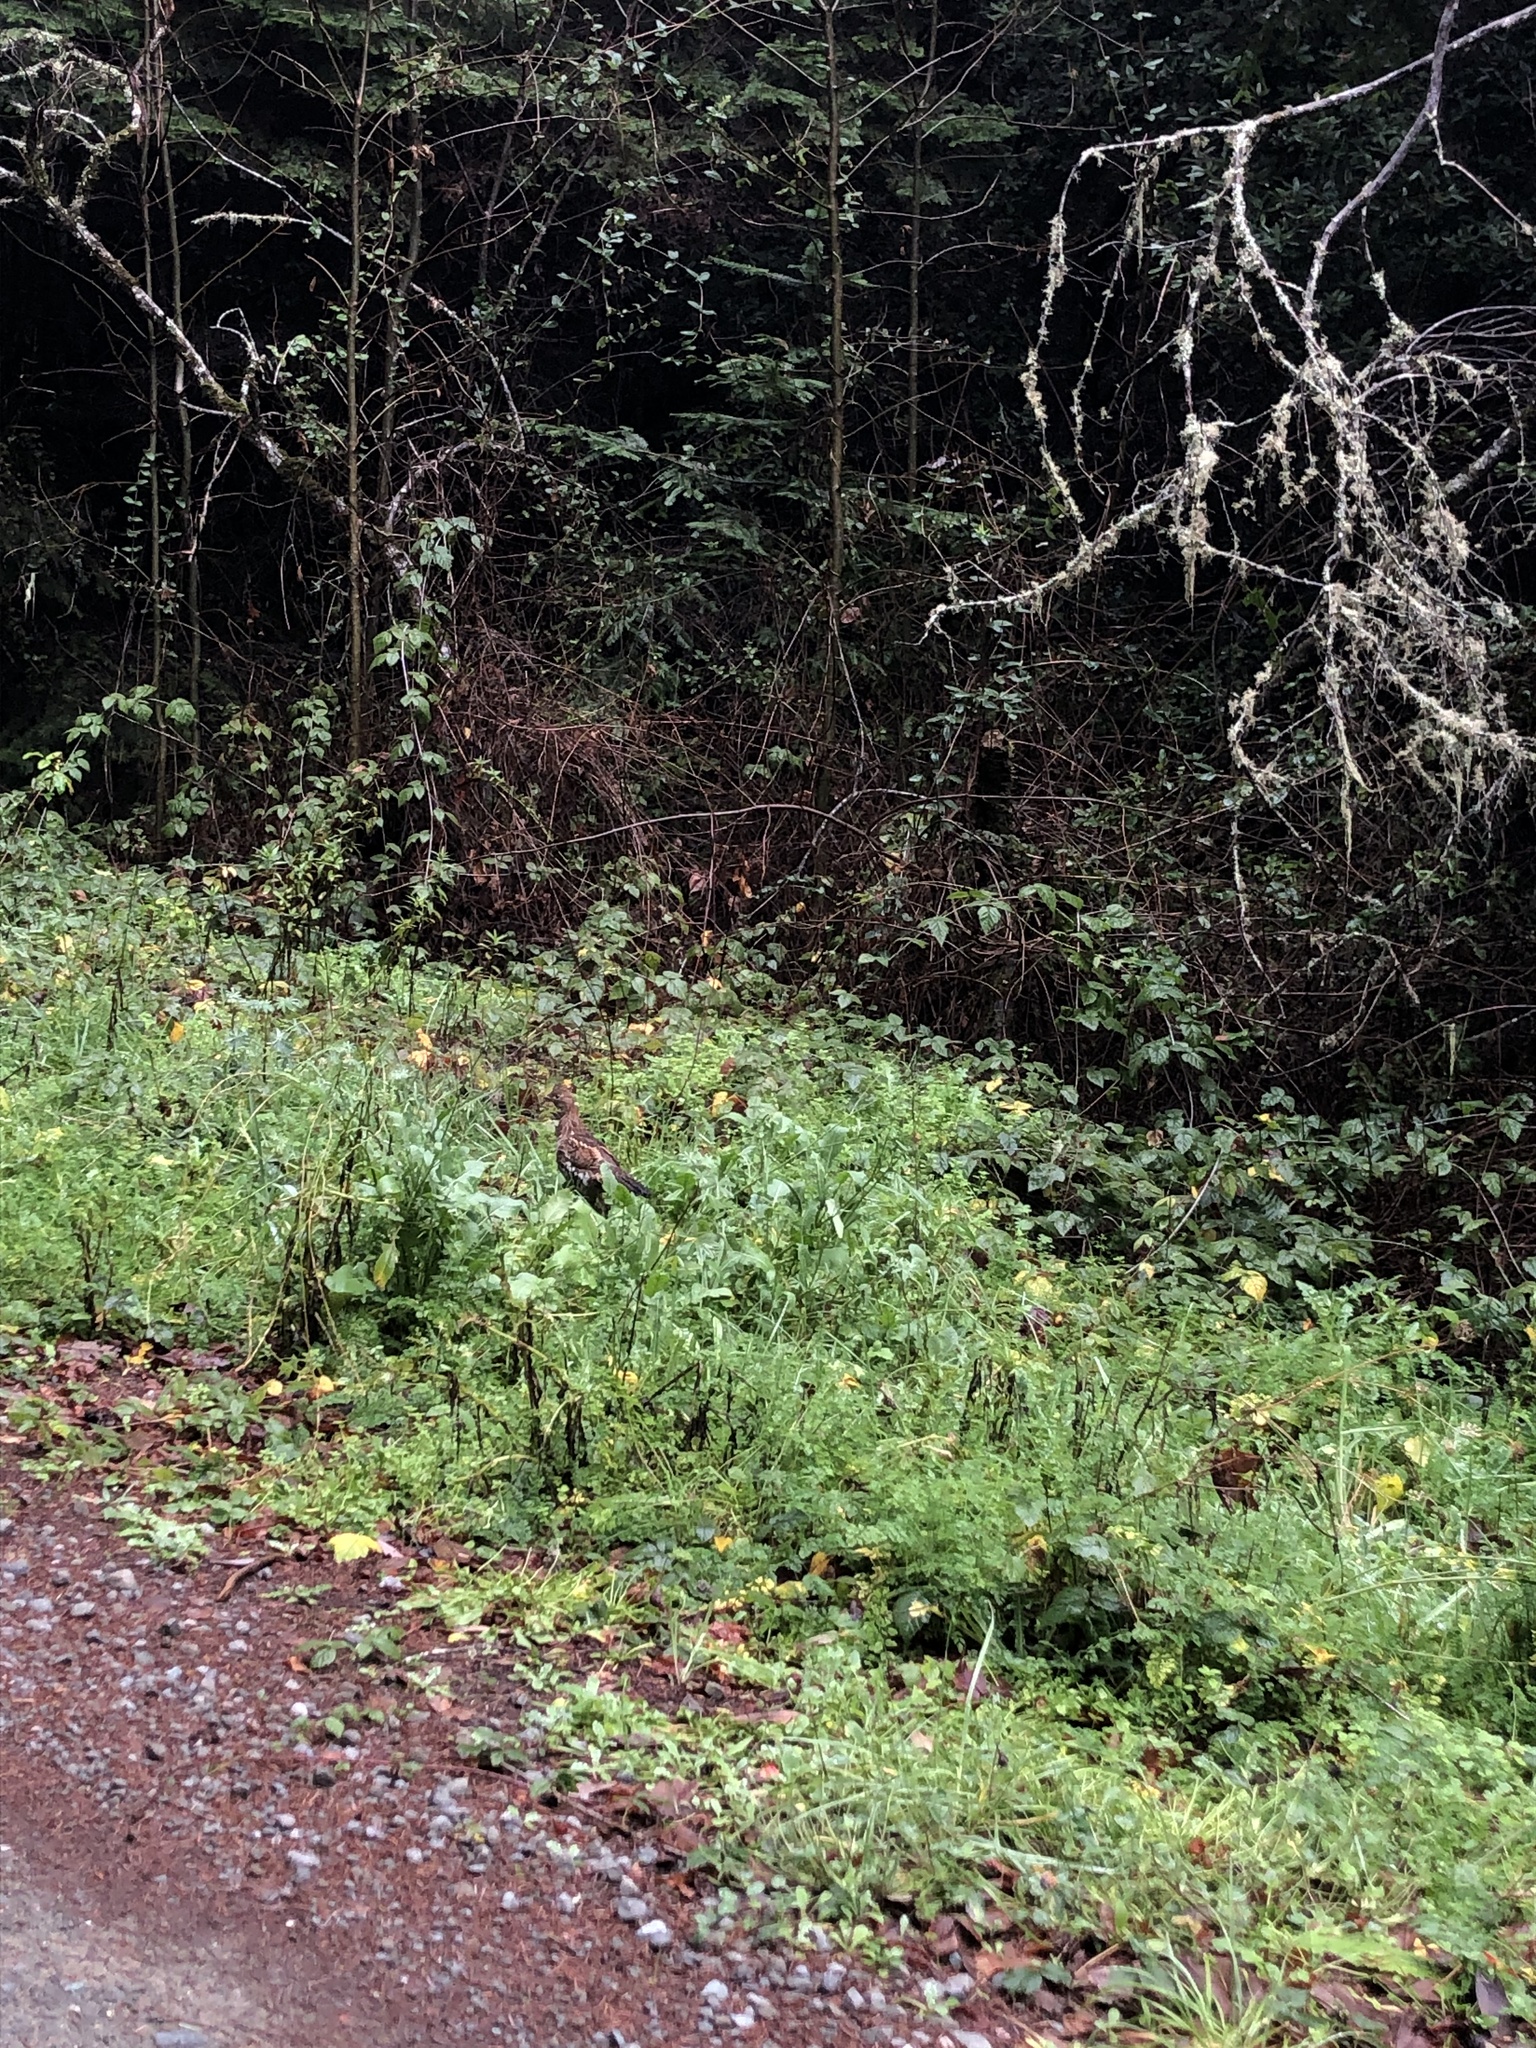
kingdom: Animalia
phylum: Chordata
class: Aves
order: Galliformes
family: Phasianidae
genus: Bonasa
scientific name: Bonasa umbellus
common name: Ruffed grouse
